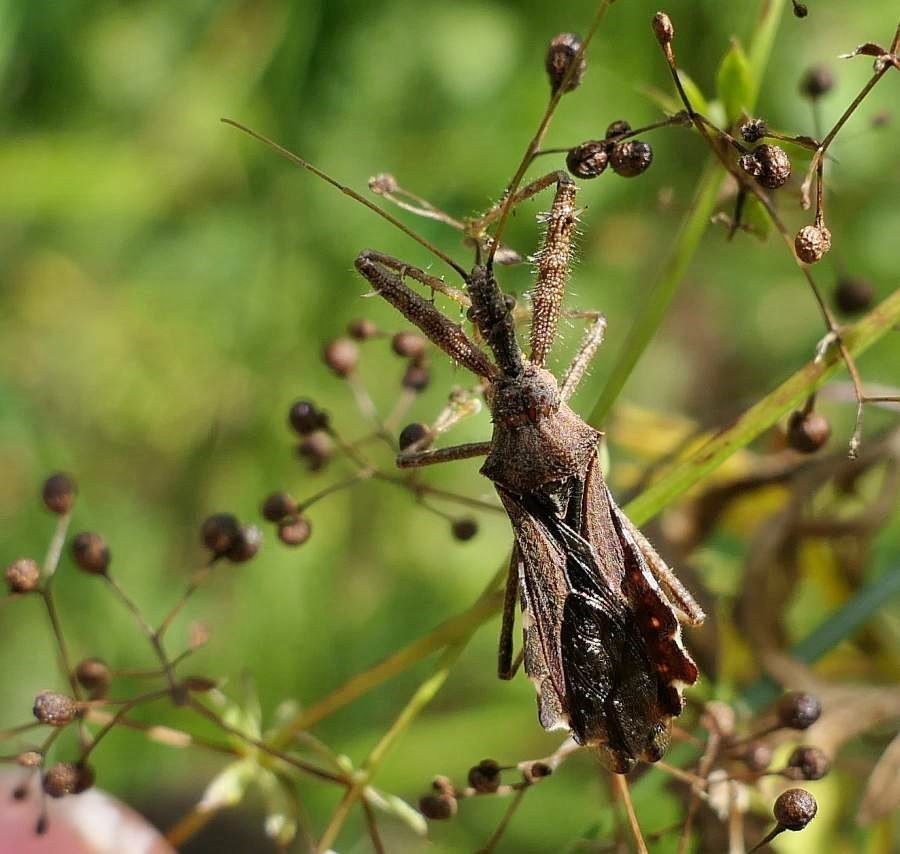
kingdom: Animalia
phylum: Arthropoda
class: Insecta
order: Hemiptera
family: Reduviidae
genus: Sinea
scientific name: Sinea diadema
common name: Spined assassin bug
